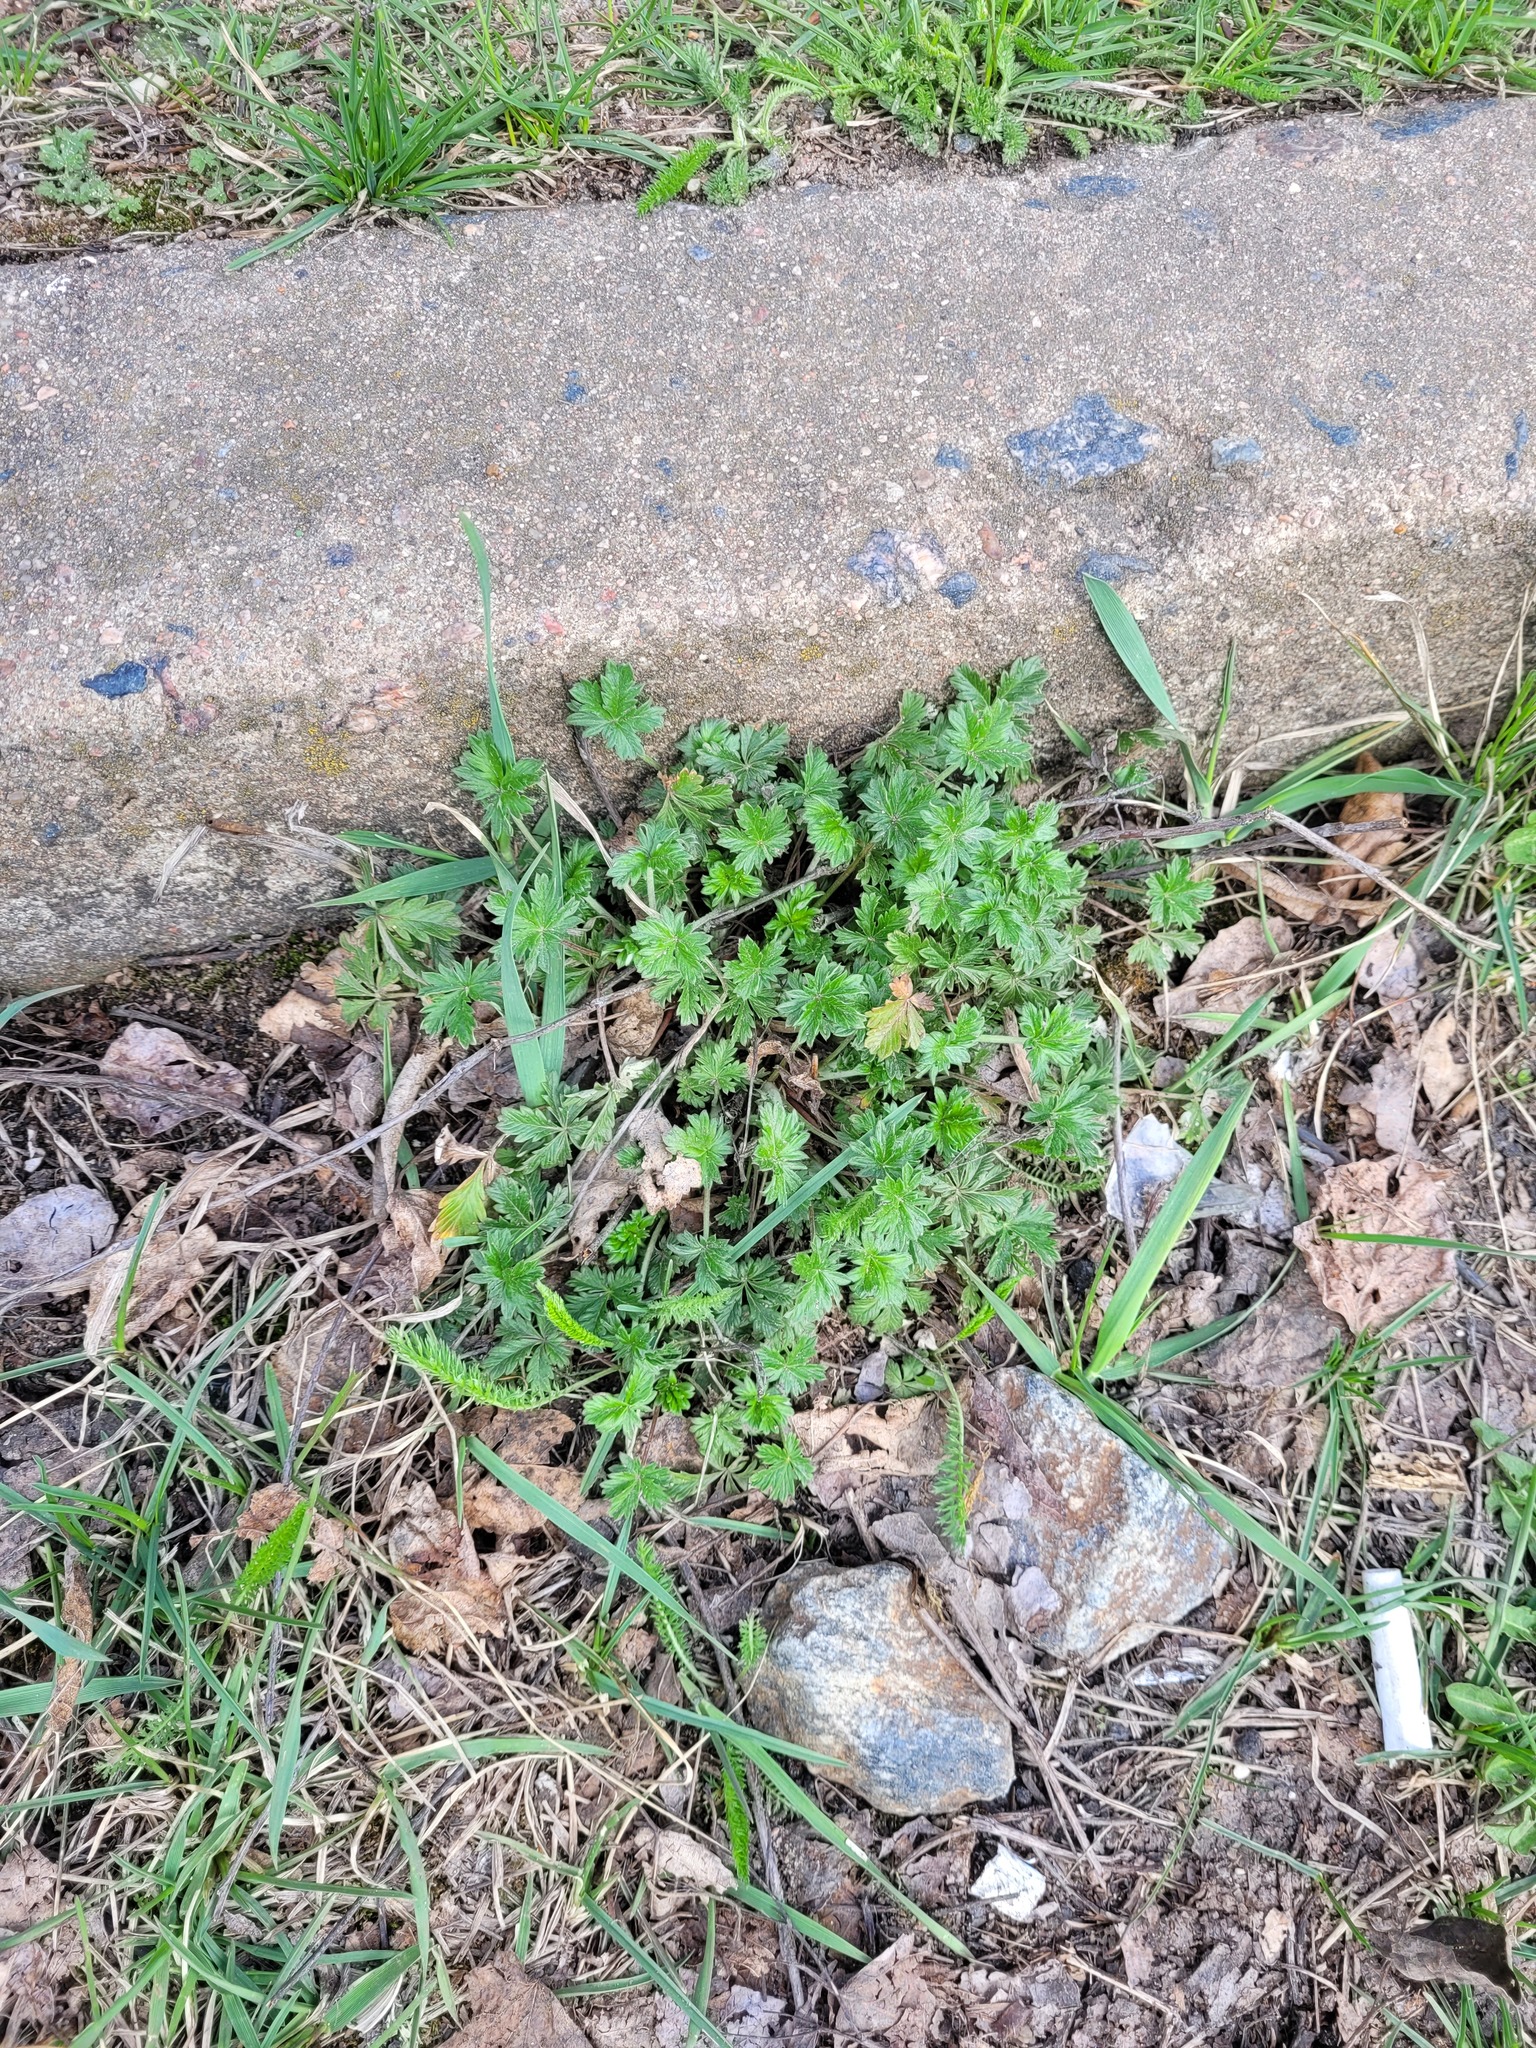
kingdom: Plantae
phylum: Tracheophyta
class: Magnoliopsida
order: Rosales
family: Rosaceae
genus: Potentilla
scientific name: Potentilla argentea
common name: Hoary cinquefoil
